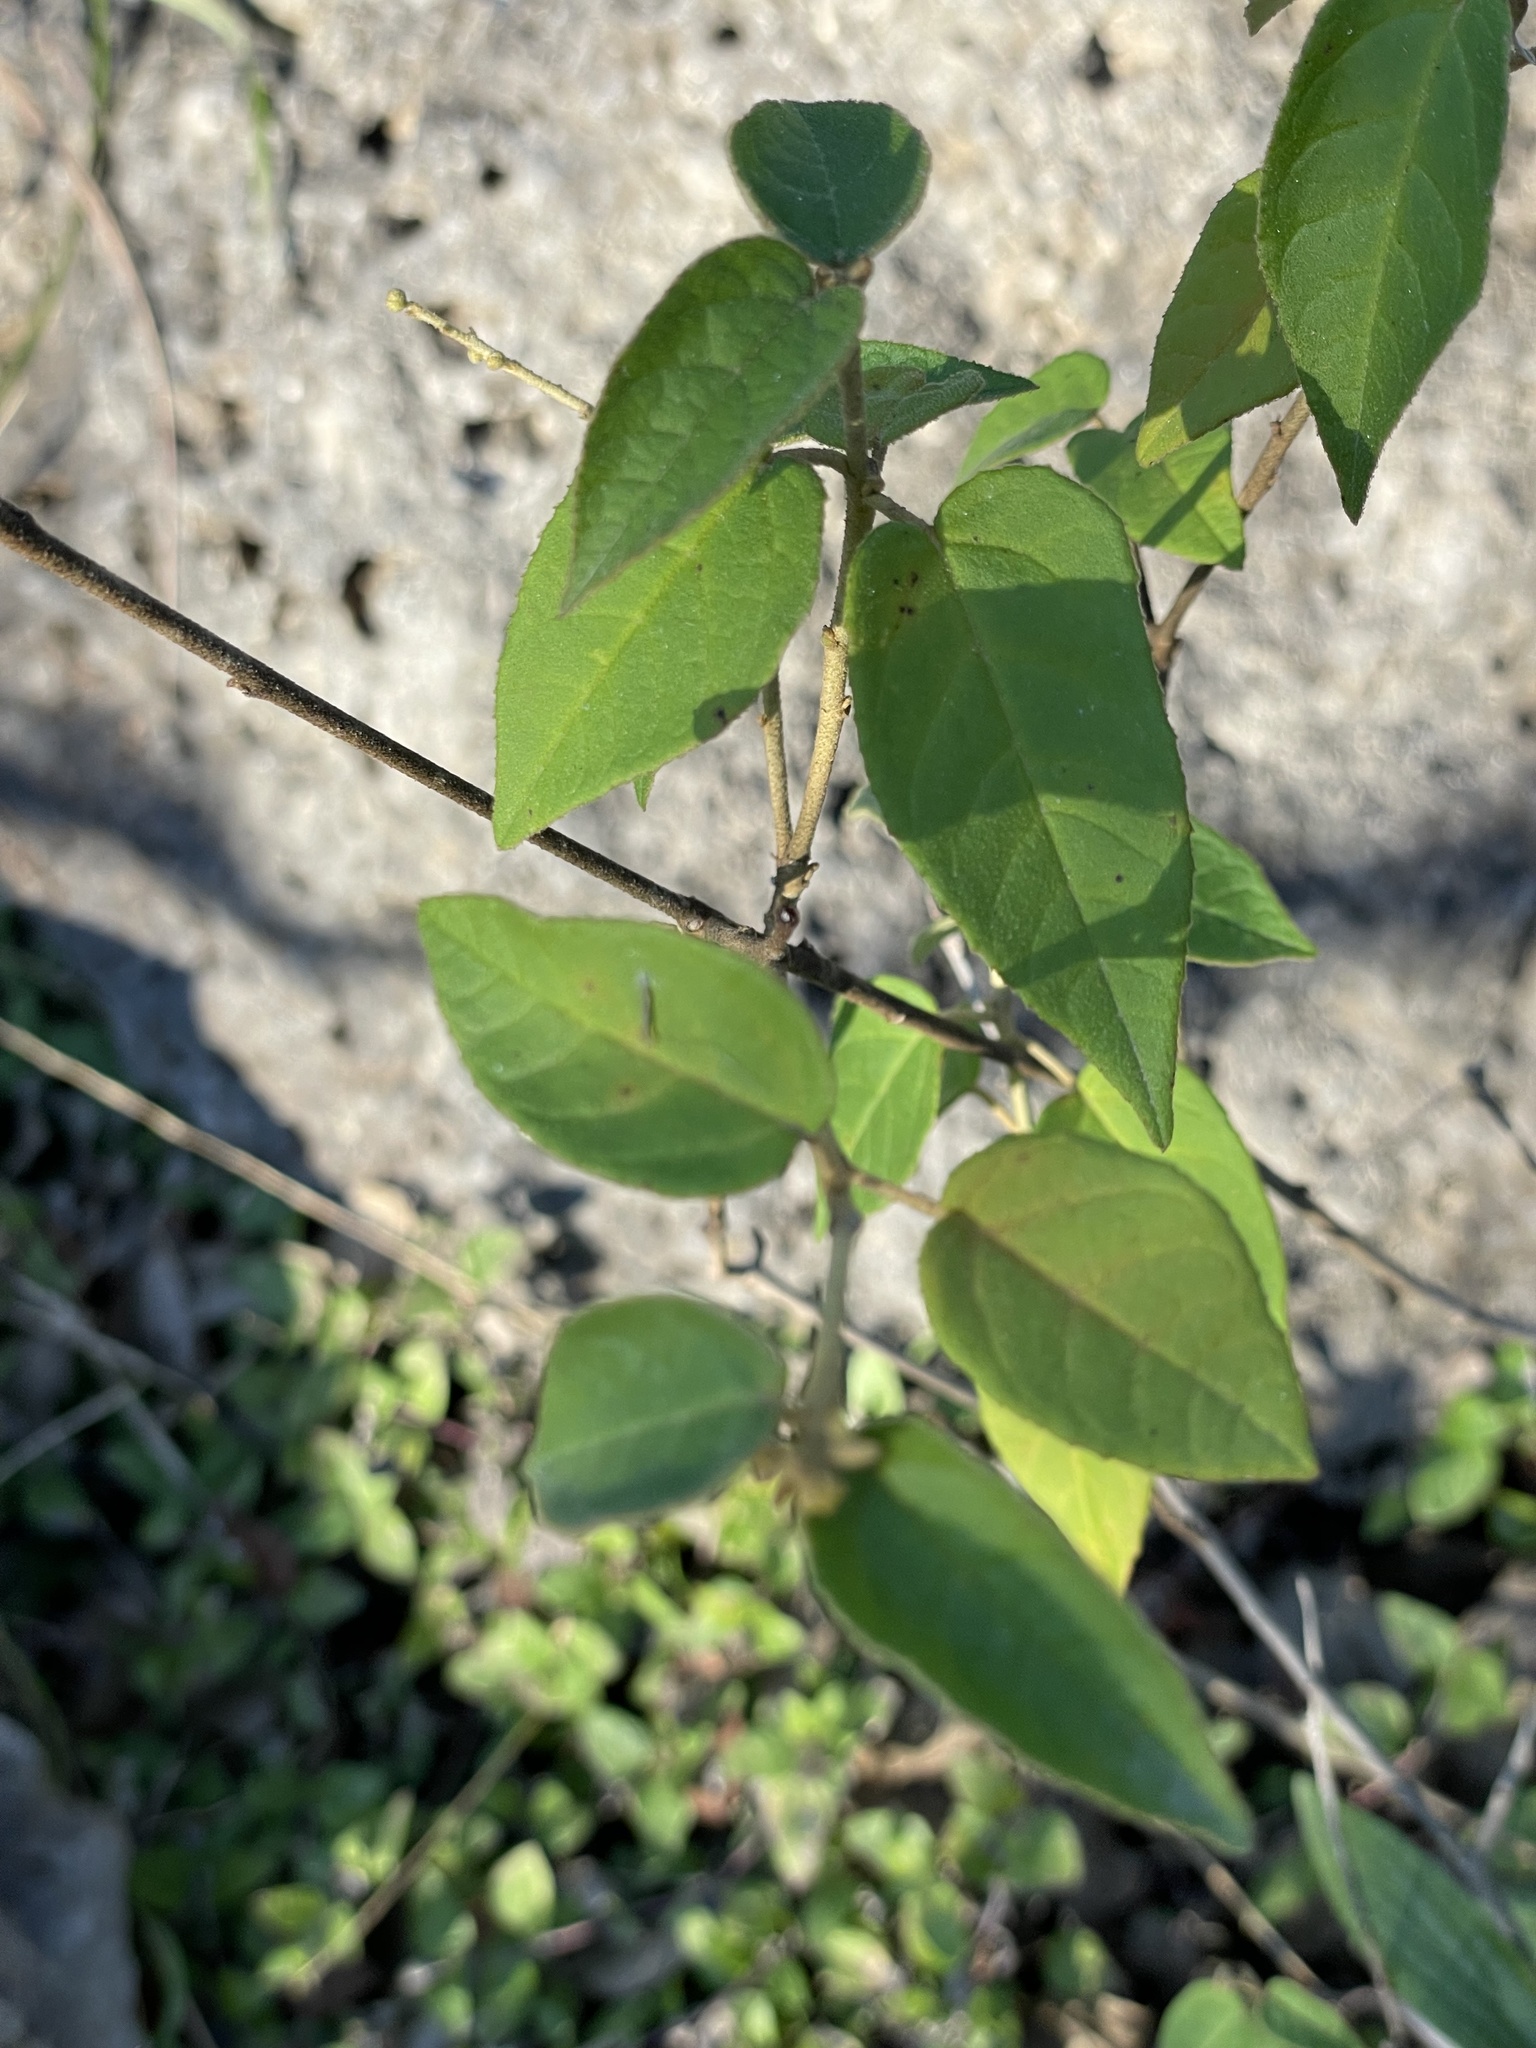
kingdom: Plantae
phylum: Tracheophyta
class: Magnoliopsida
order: Malpighiales
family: Euphorbiaceae
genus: Croton
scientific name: Croton fruticulosus
